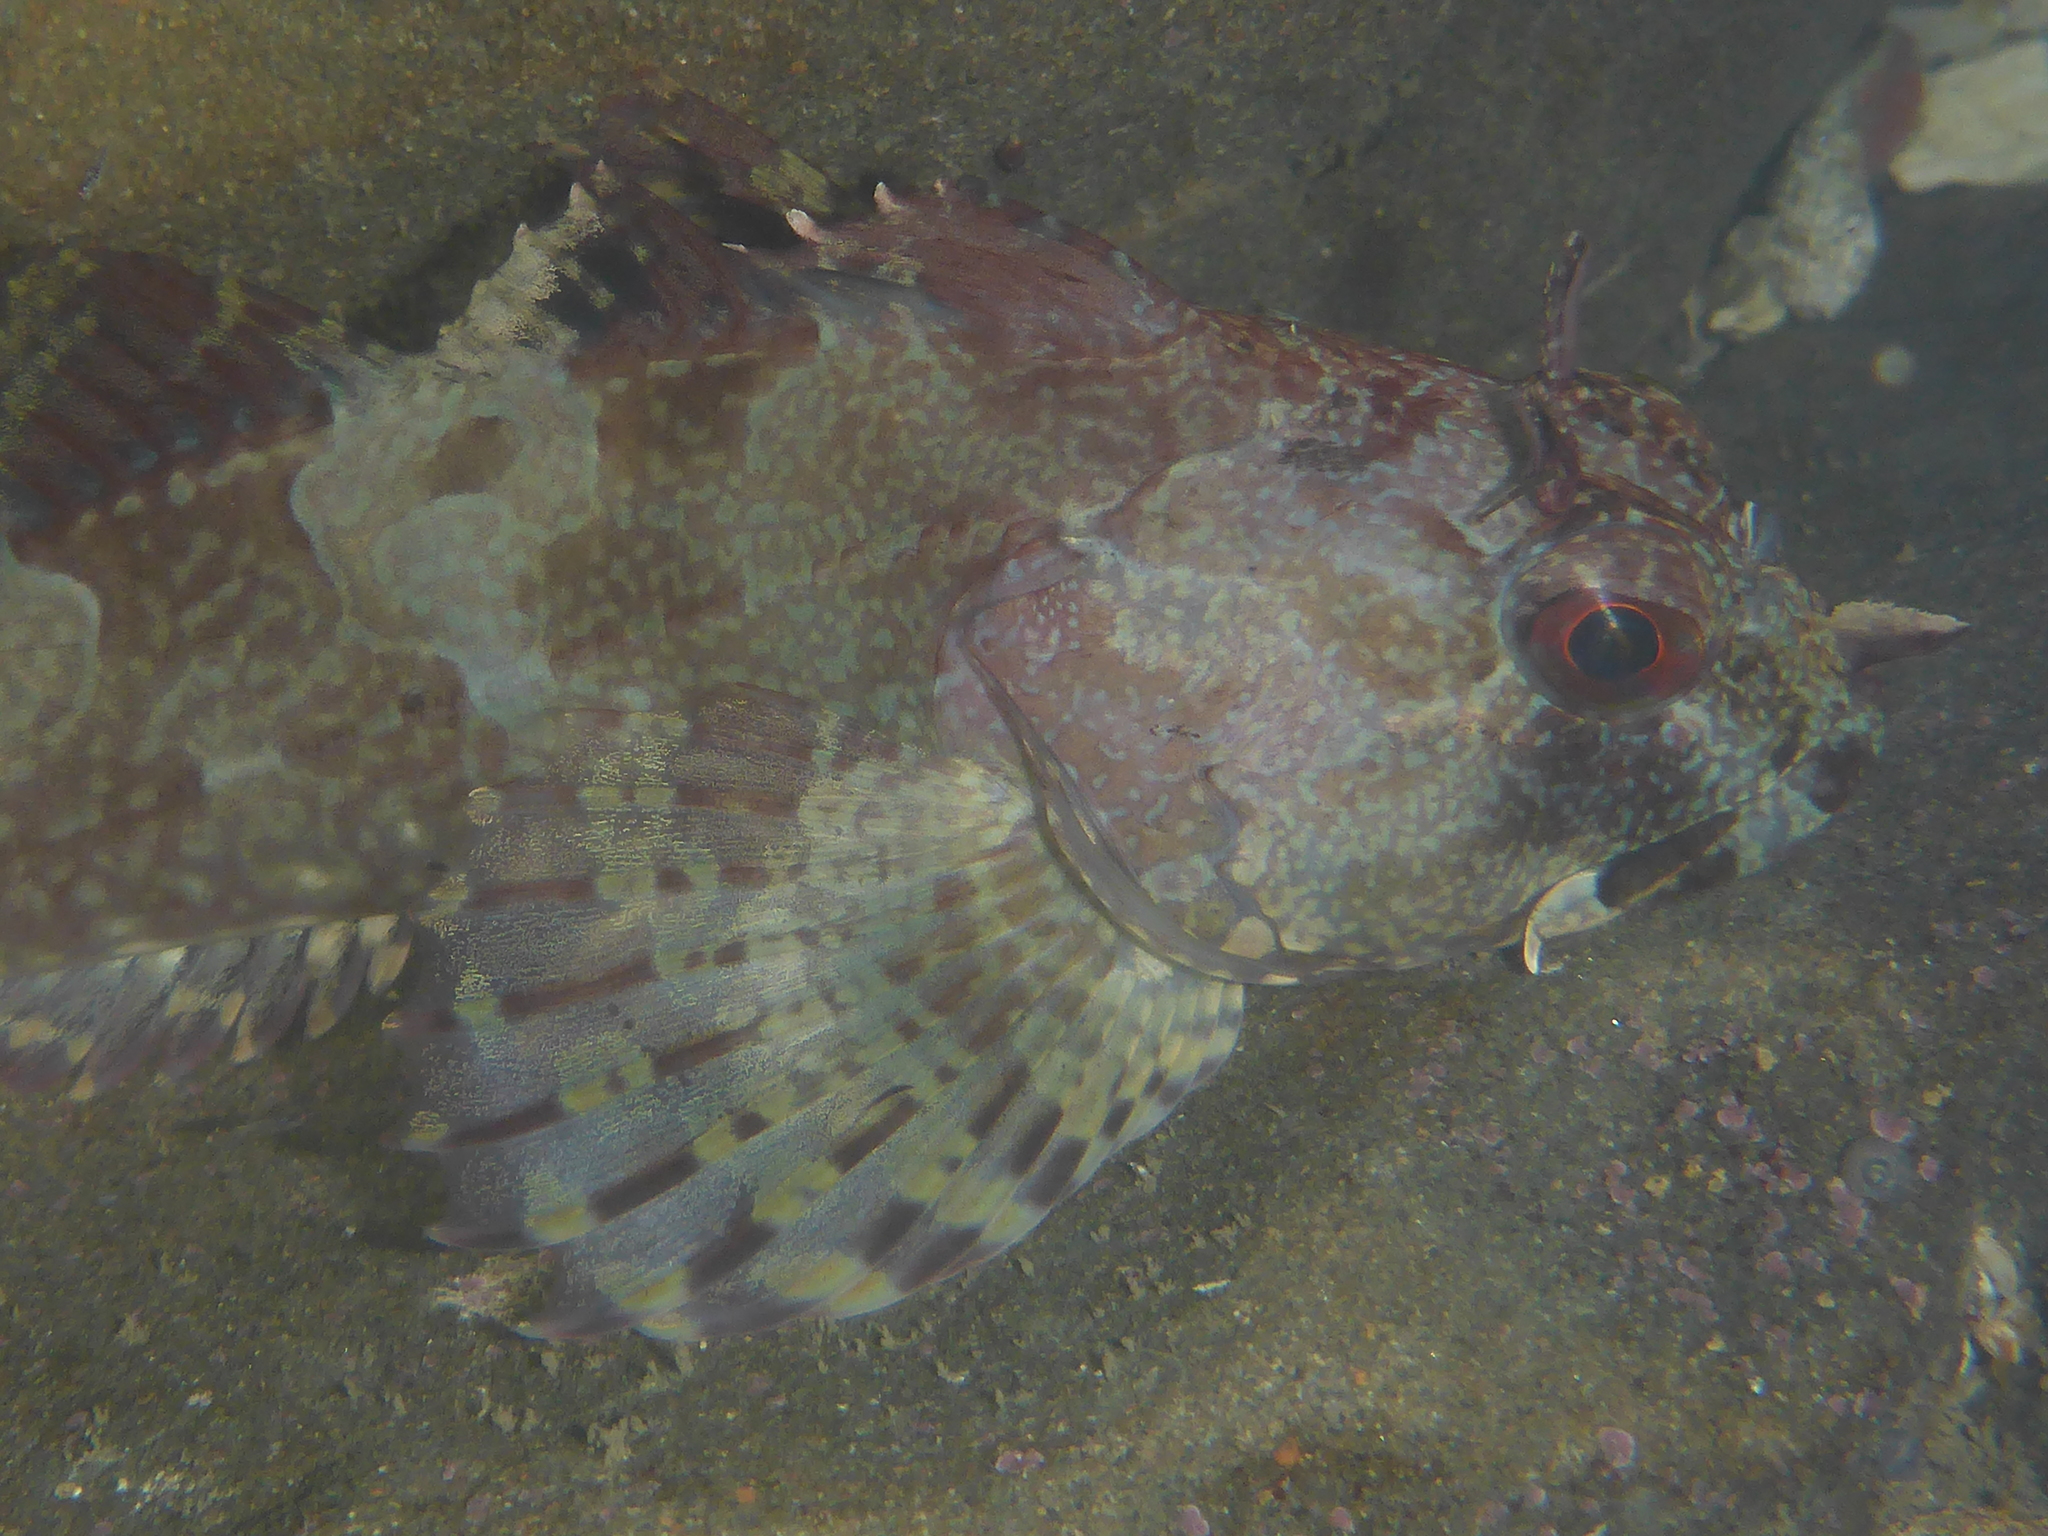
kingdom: Animalia
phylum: Chordata
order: Scorpaeniformes
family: Cottidae
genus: Scorpaenichthys
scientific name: Scorpaenichthys marmoratus
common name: Cabezon
